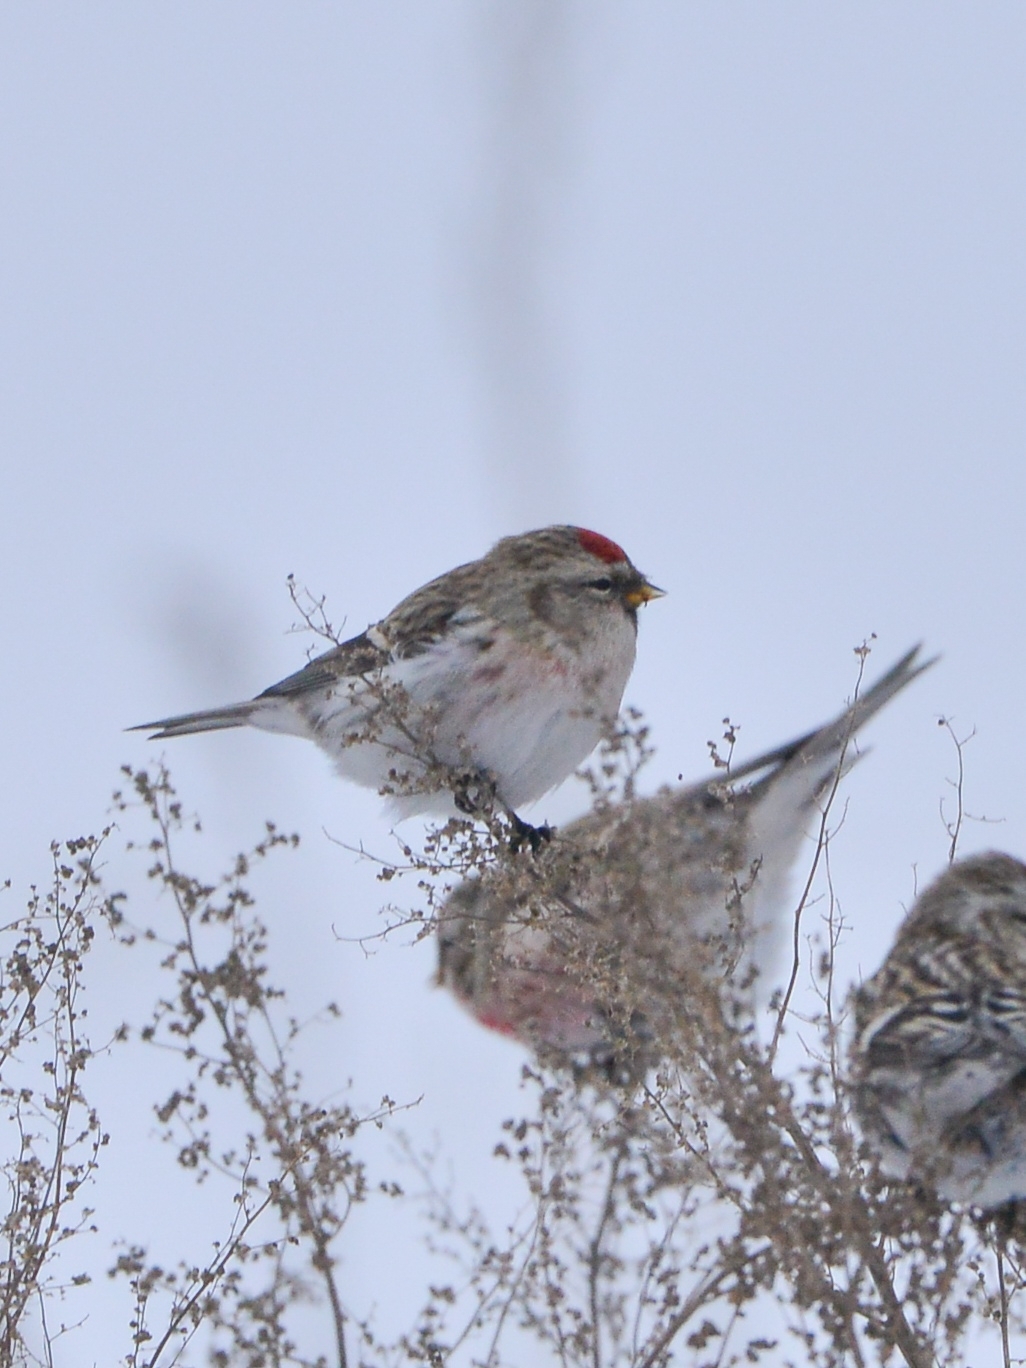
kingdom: Animalia
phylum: Chordata
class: Aves
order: Passeriformes
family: Fringillidae
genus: Acanthis
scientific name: Acanthis hornemanni
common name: Arctic redpoll
